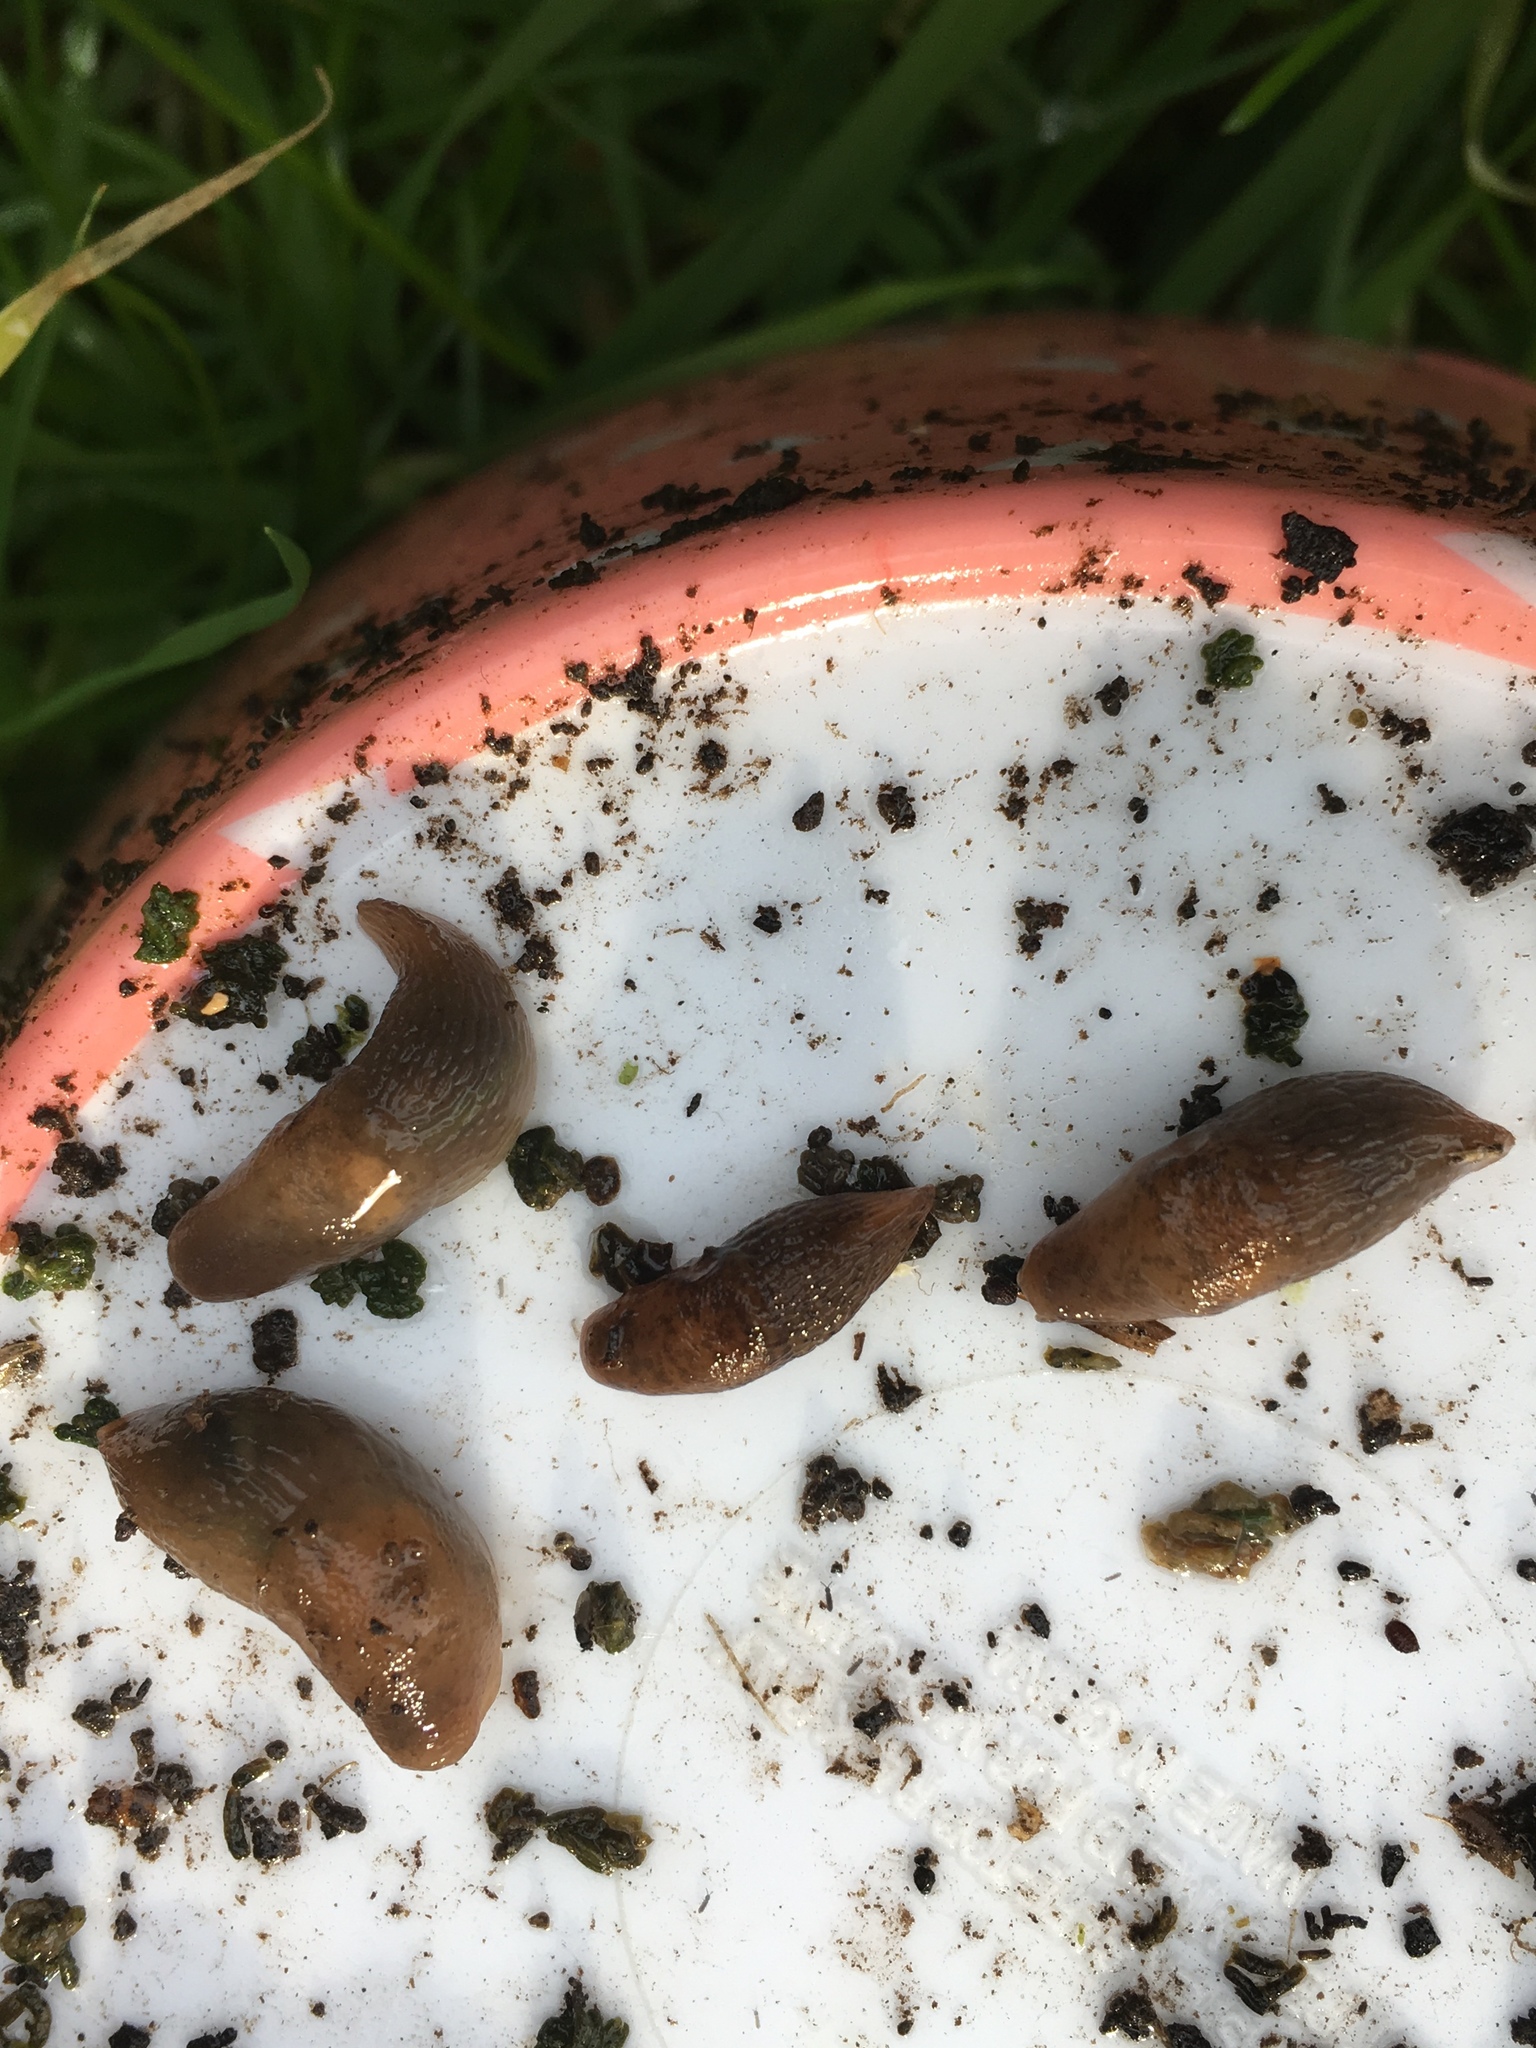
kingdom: Animalia
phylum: Mollusca
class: Gastropoda
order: Stylommatophora
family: Agriolimacidae
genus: Deroceras
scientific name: Deroceras reticulatum
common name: Gray field slug
